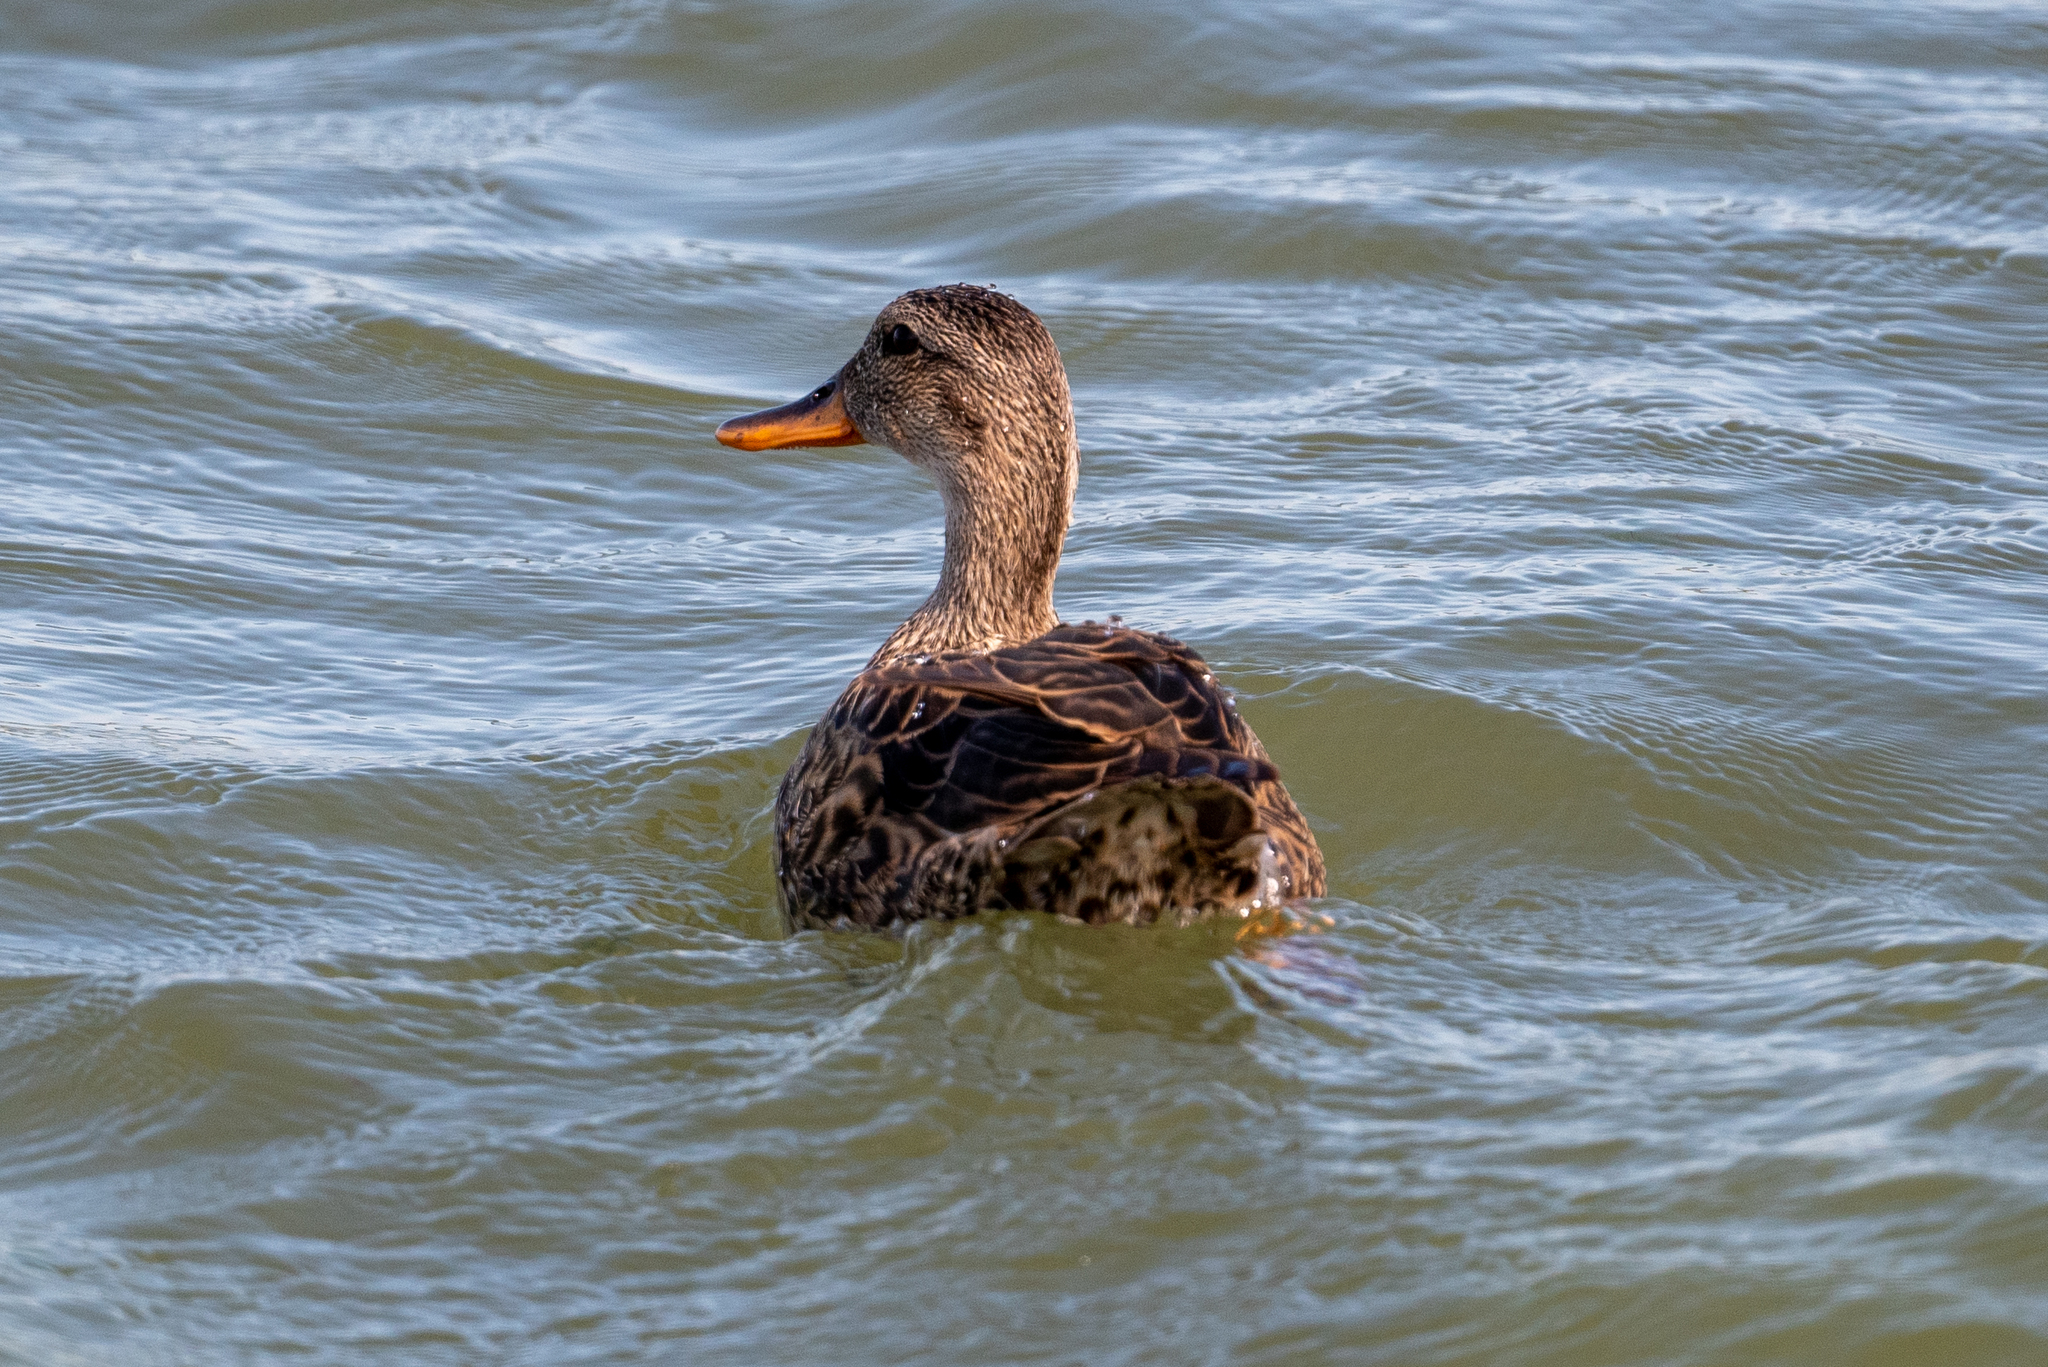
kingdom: Animalia
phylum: Chordata
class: Aves
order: Anseriformes
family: Anatidae
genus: Mareca
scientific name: Mareca strepera
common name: Gadwall
